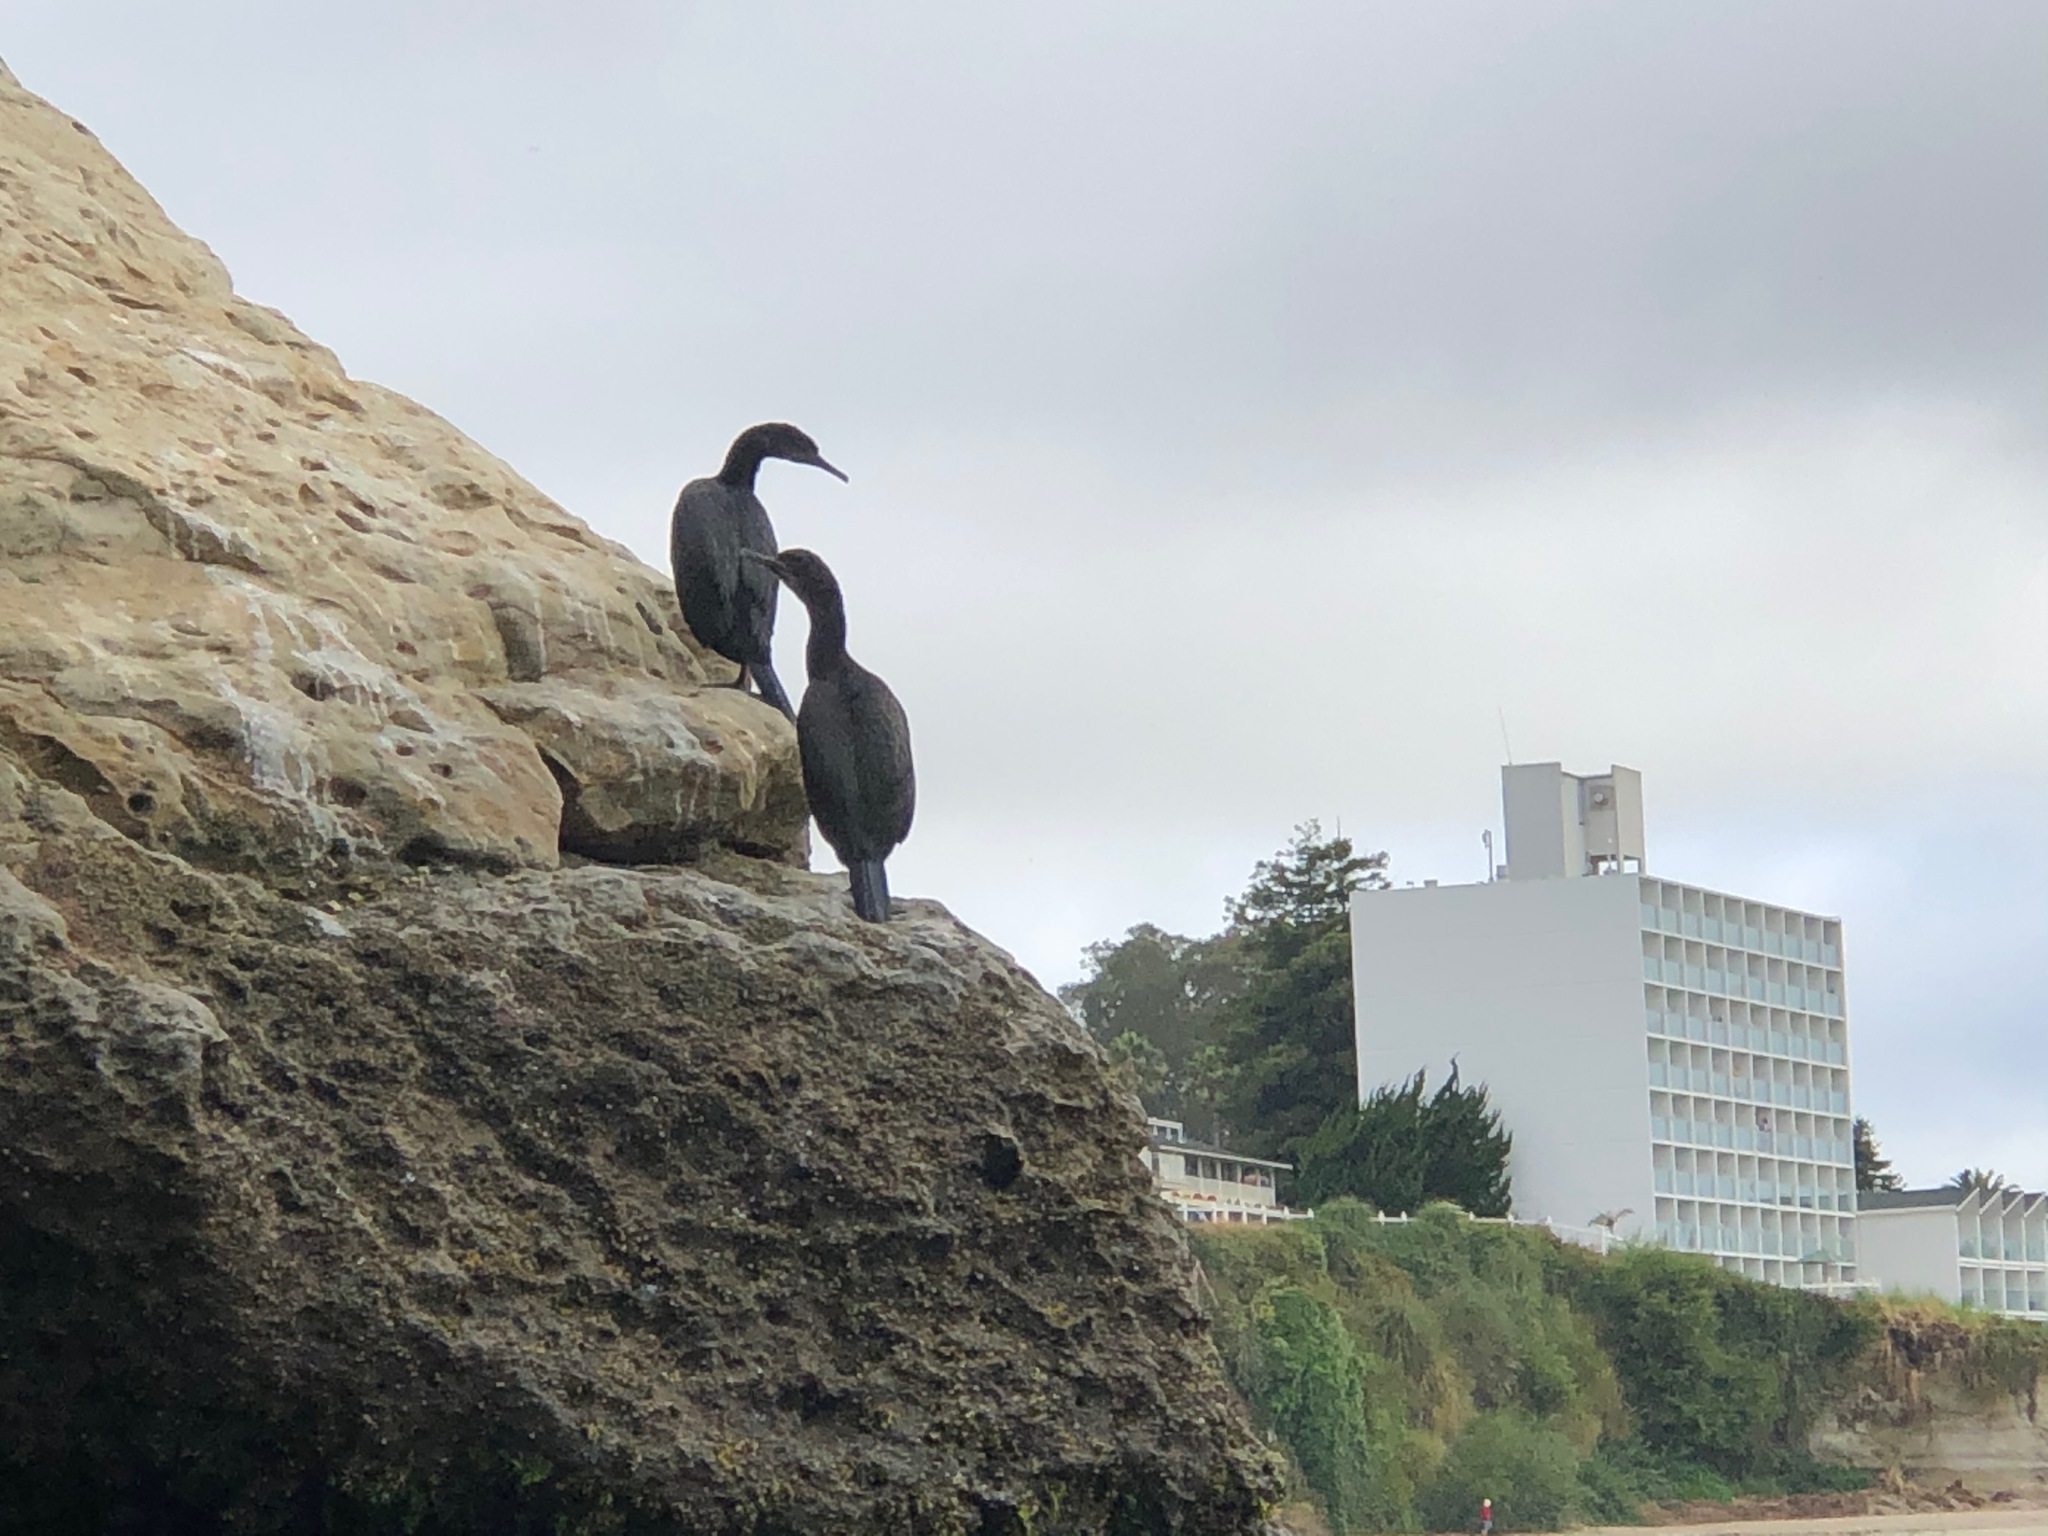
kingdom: Animalia
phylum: Chordata
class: Aves
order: Suliformes
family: Phalacrocoracidae
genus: Urile
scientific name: Urile penicillatus
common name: Brandt's cormorant
